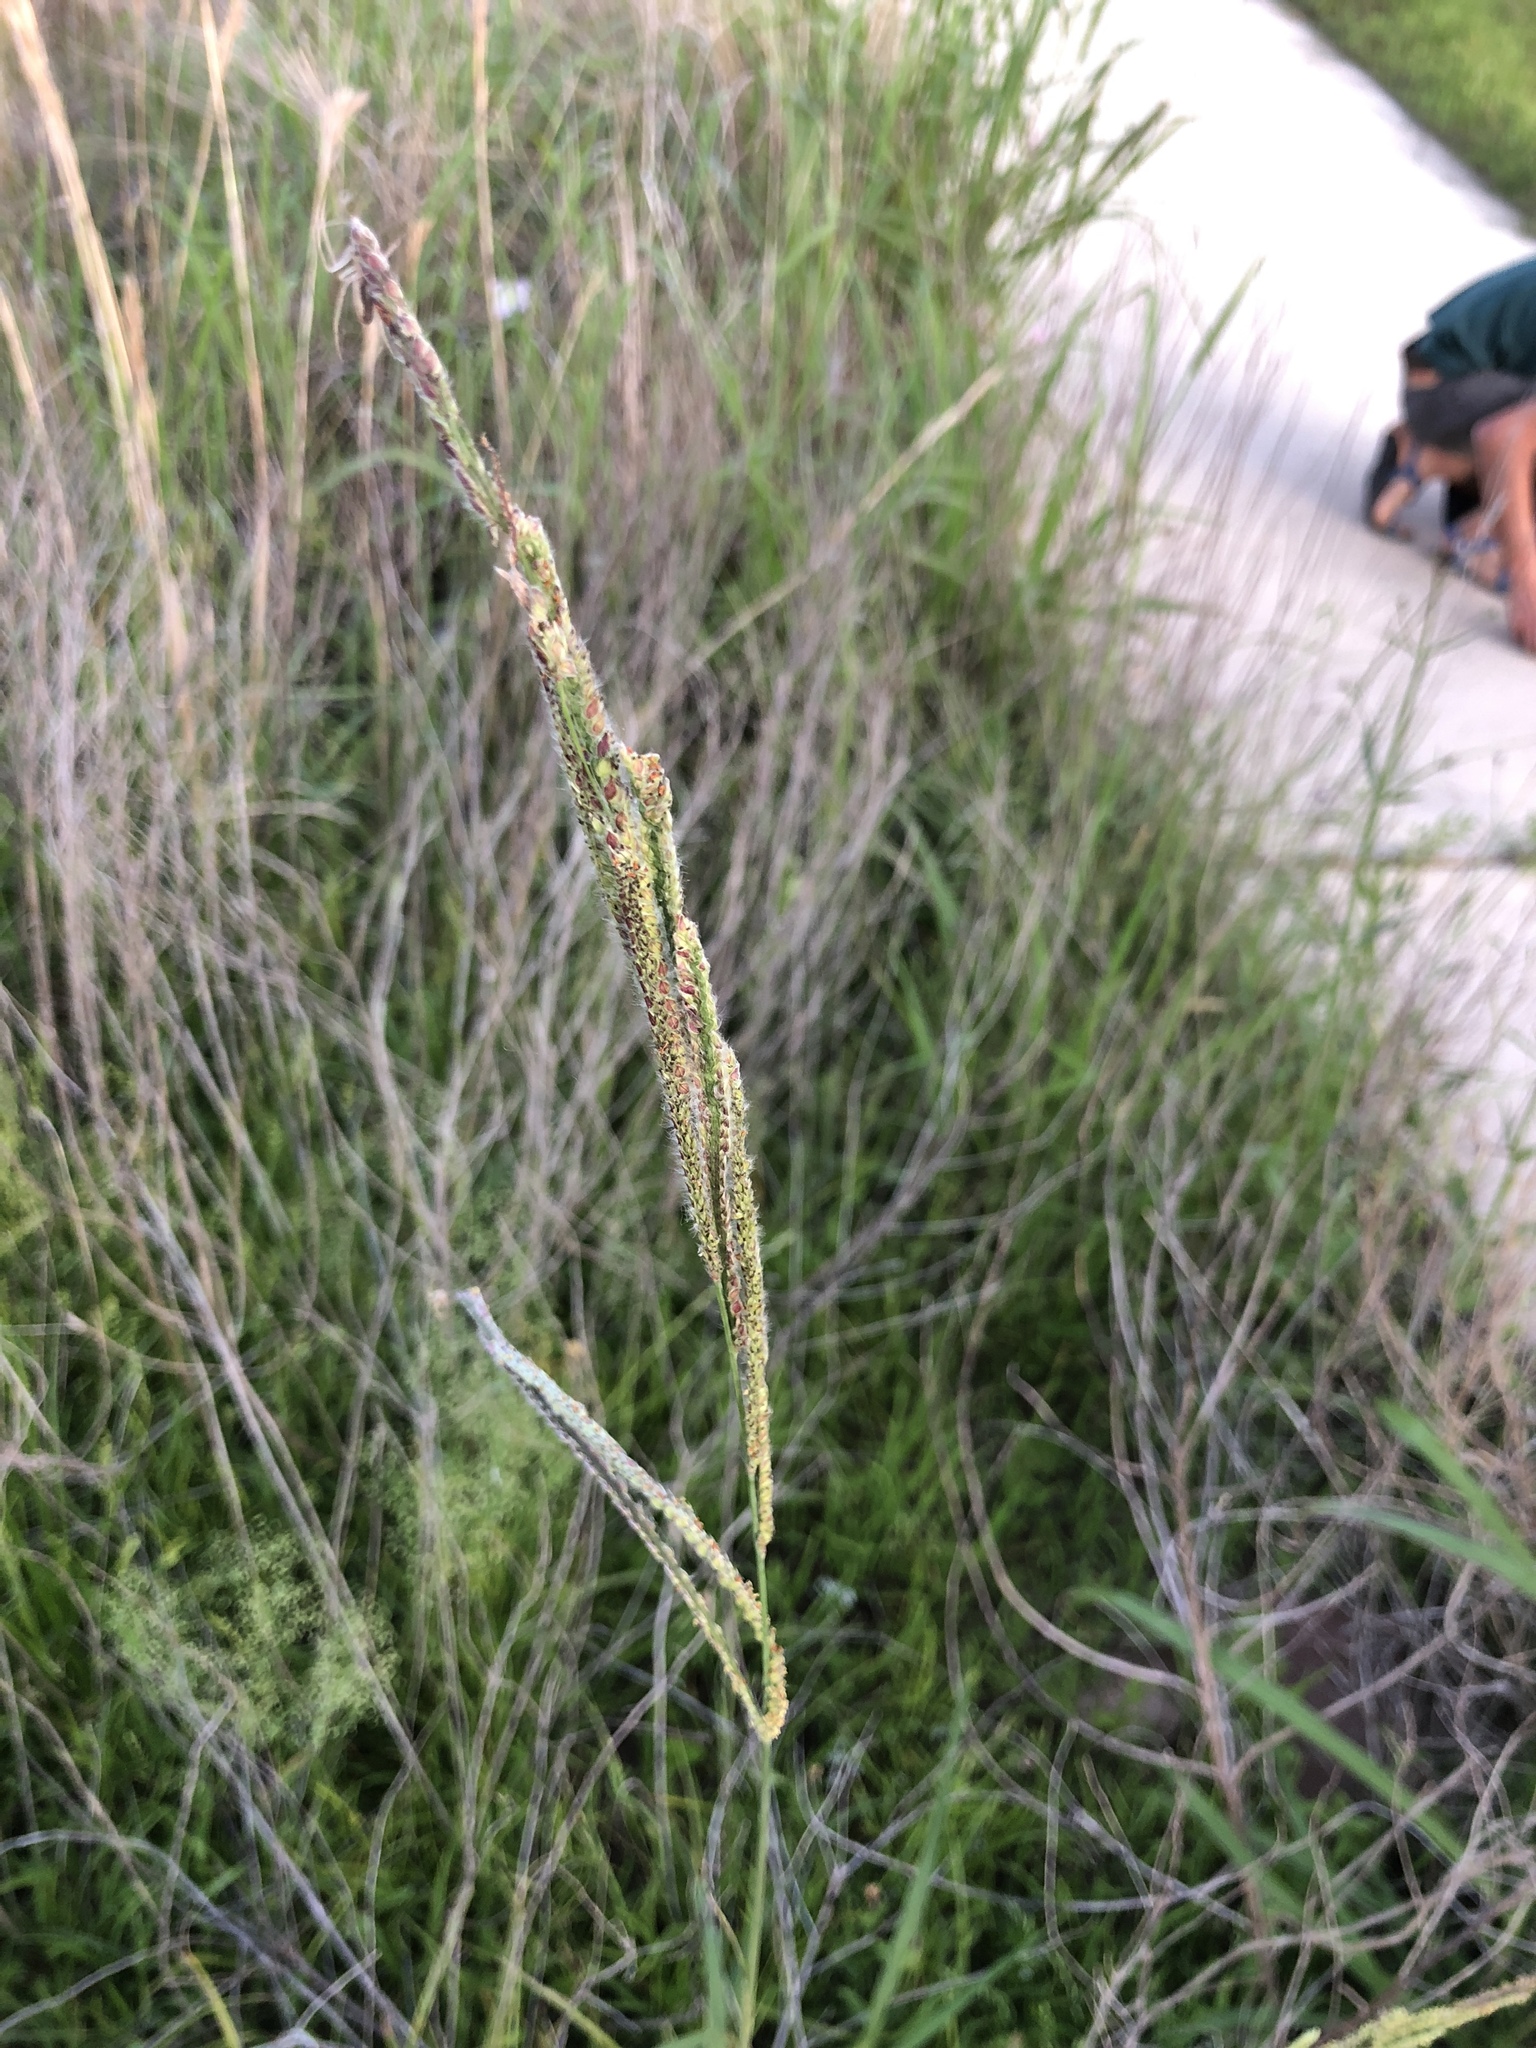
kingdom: Plantae
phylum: Tracheophyta
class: Liliopsida
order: Poales
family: Poaceae
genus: Paspalum
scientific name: Paspalum urvillei
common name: Vasey's grass
